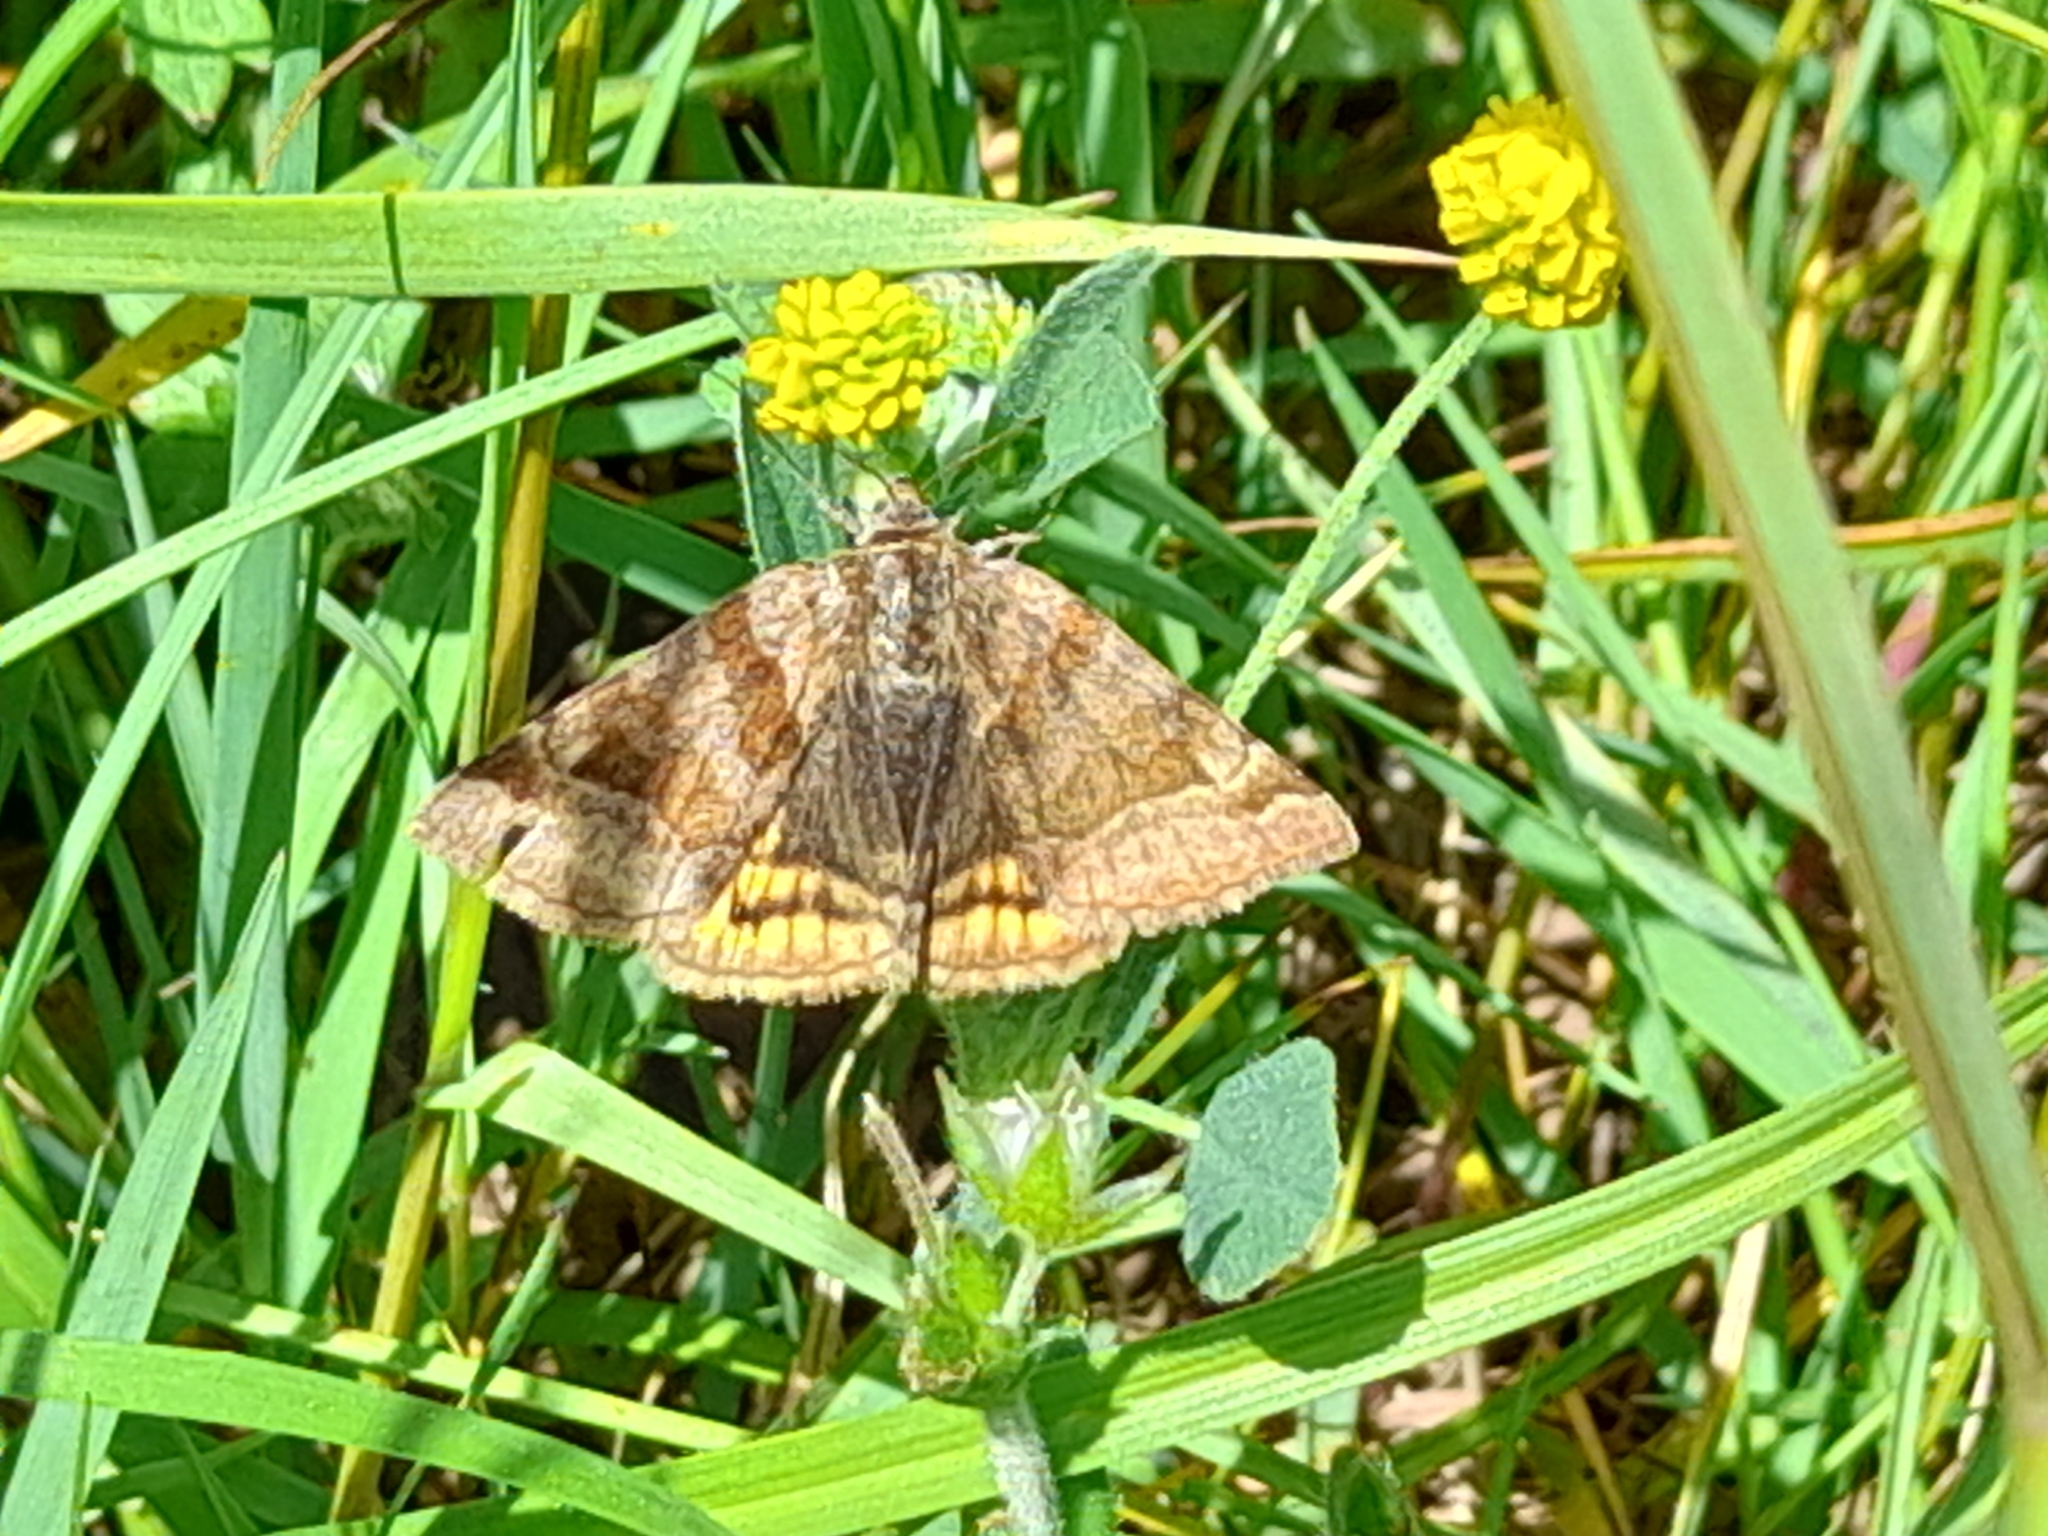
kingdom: Animalia
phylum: Arthropoda
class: Insecta
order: Lepidoptera
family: Erebidae
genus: Euclidia
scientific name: Euclidia glyphica
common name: Burnet companion
